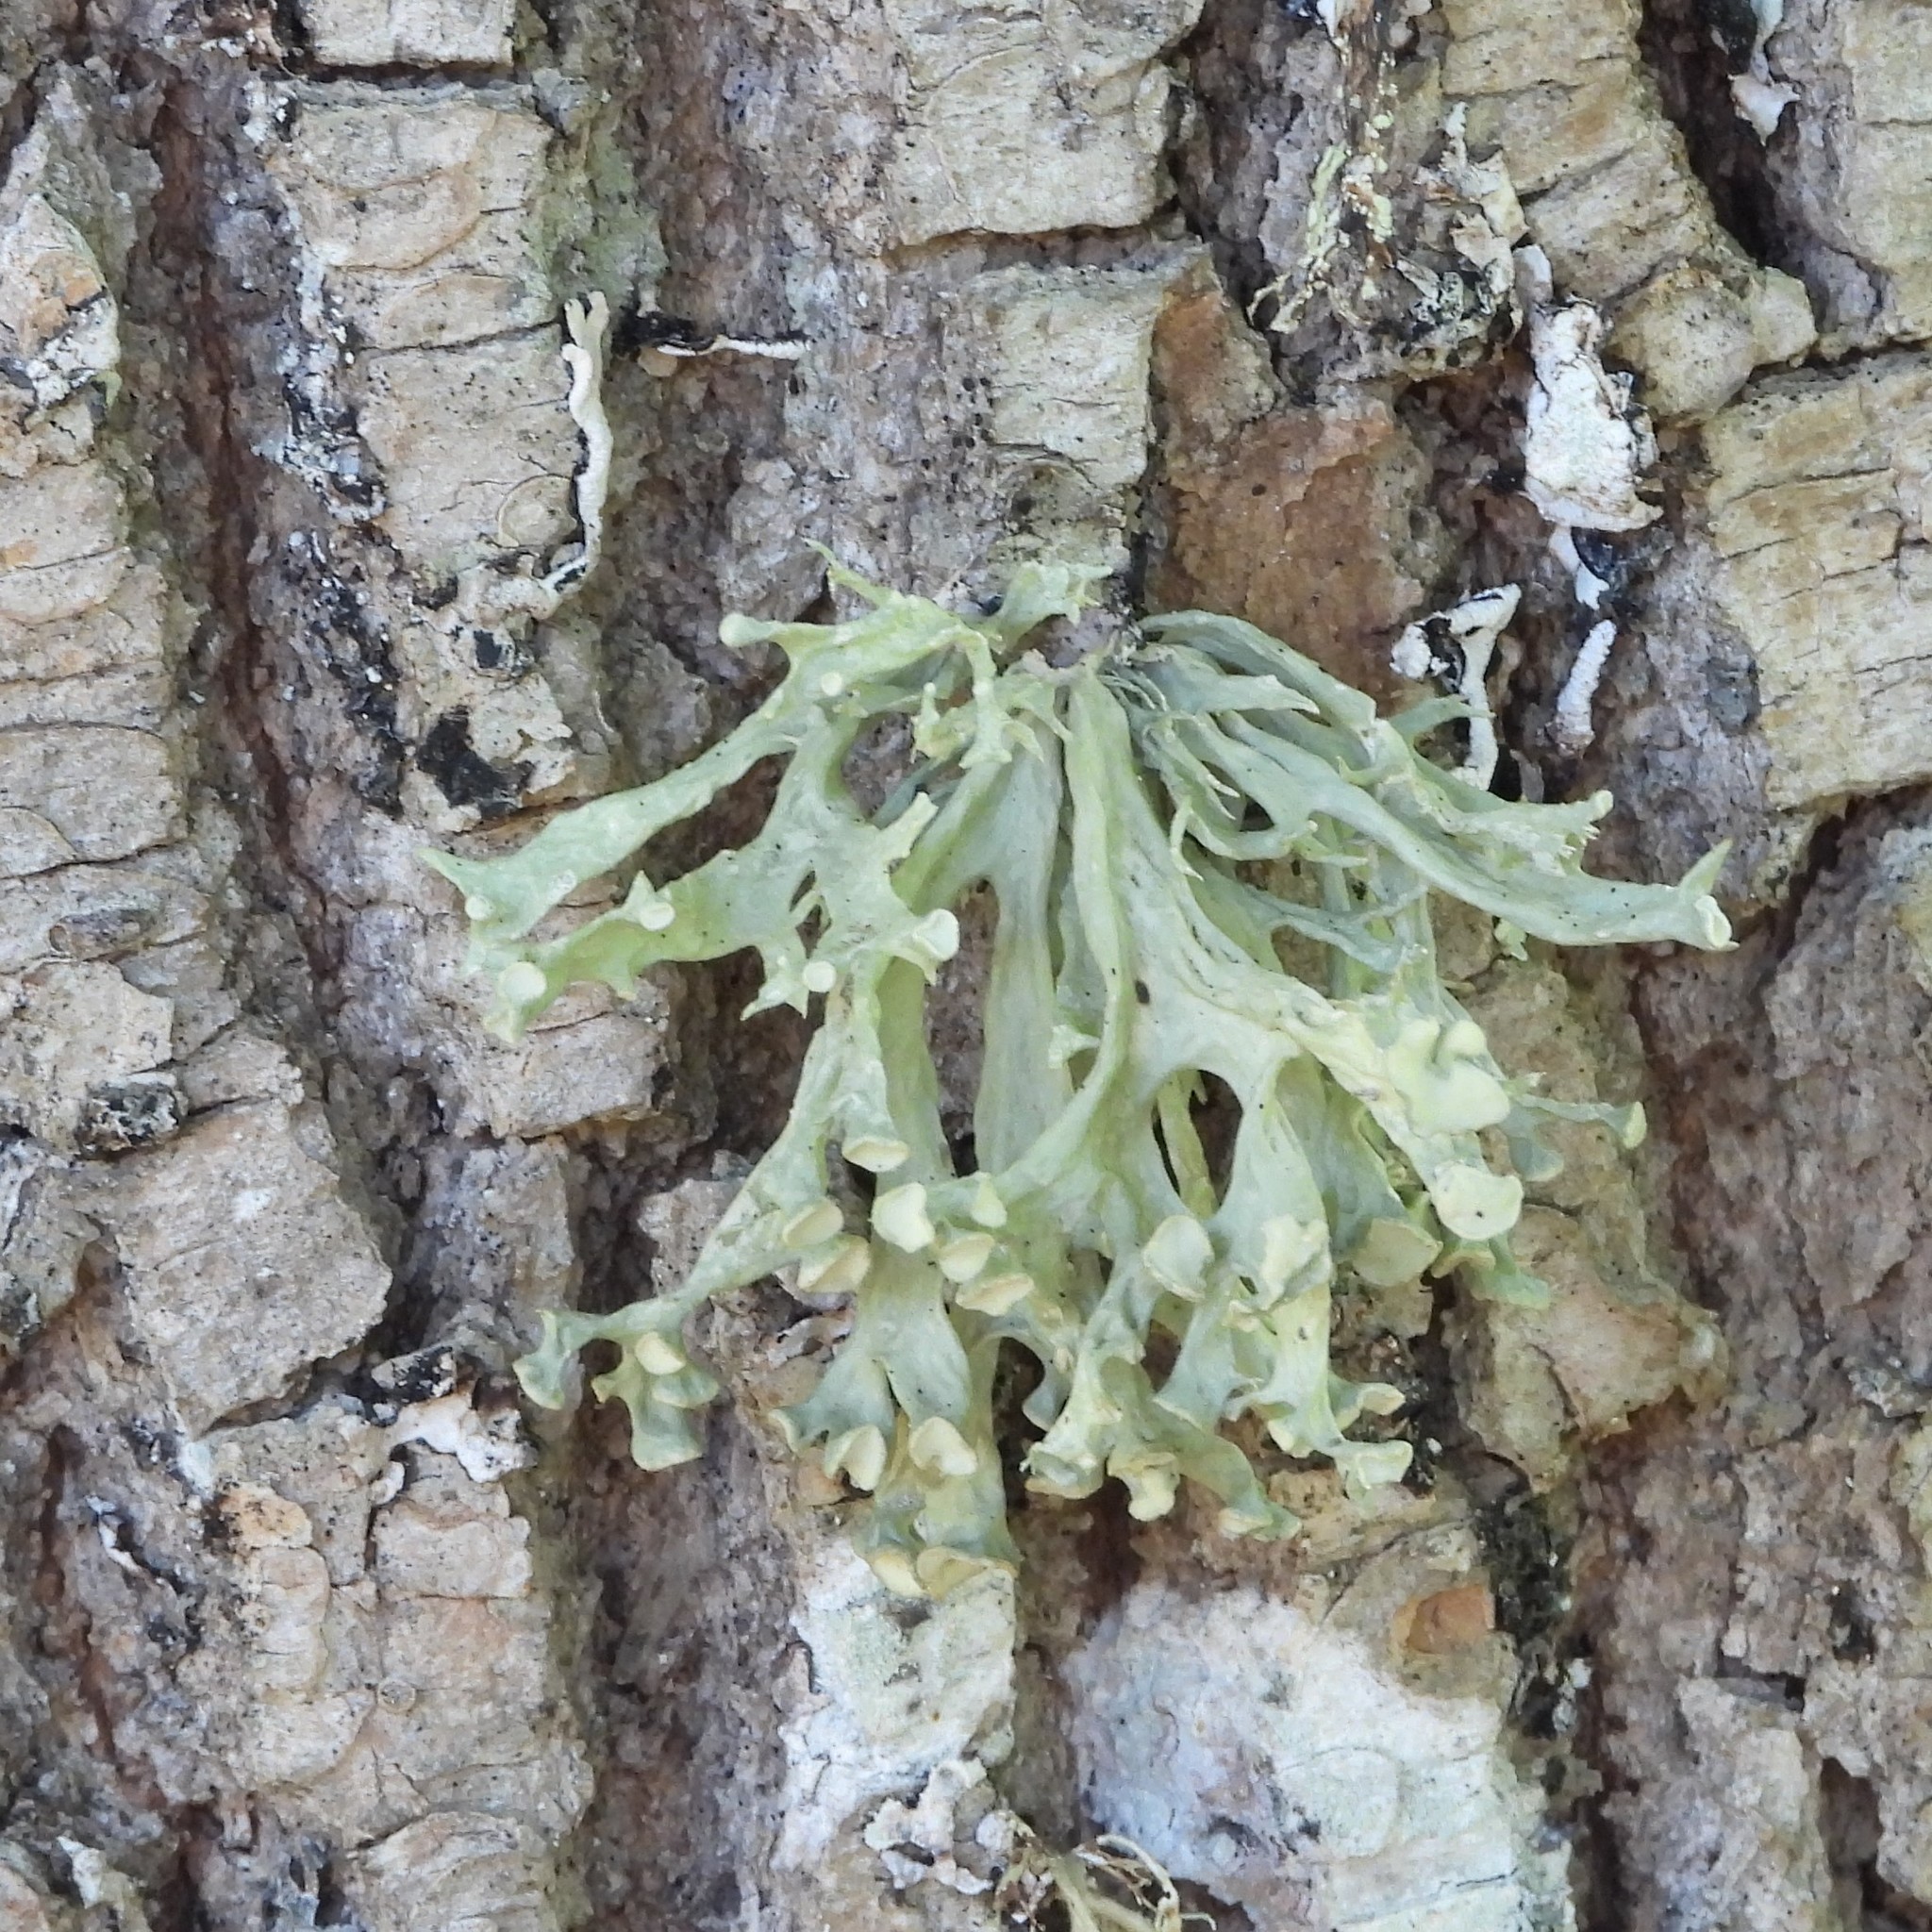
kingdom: Fungi
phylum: Ascomycota
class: Lecanoromycetes
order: Lecanorales
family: Ramalinaceae
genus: Ramalina
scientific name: Ramalina fastigiata
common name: Dotted ribbon lichen
